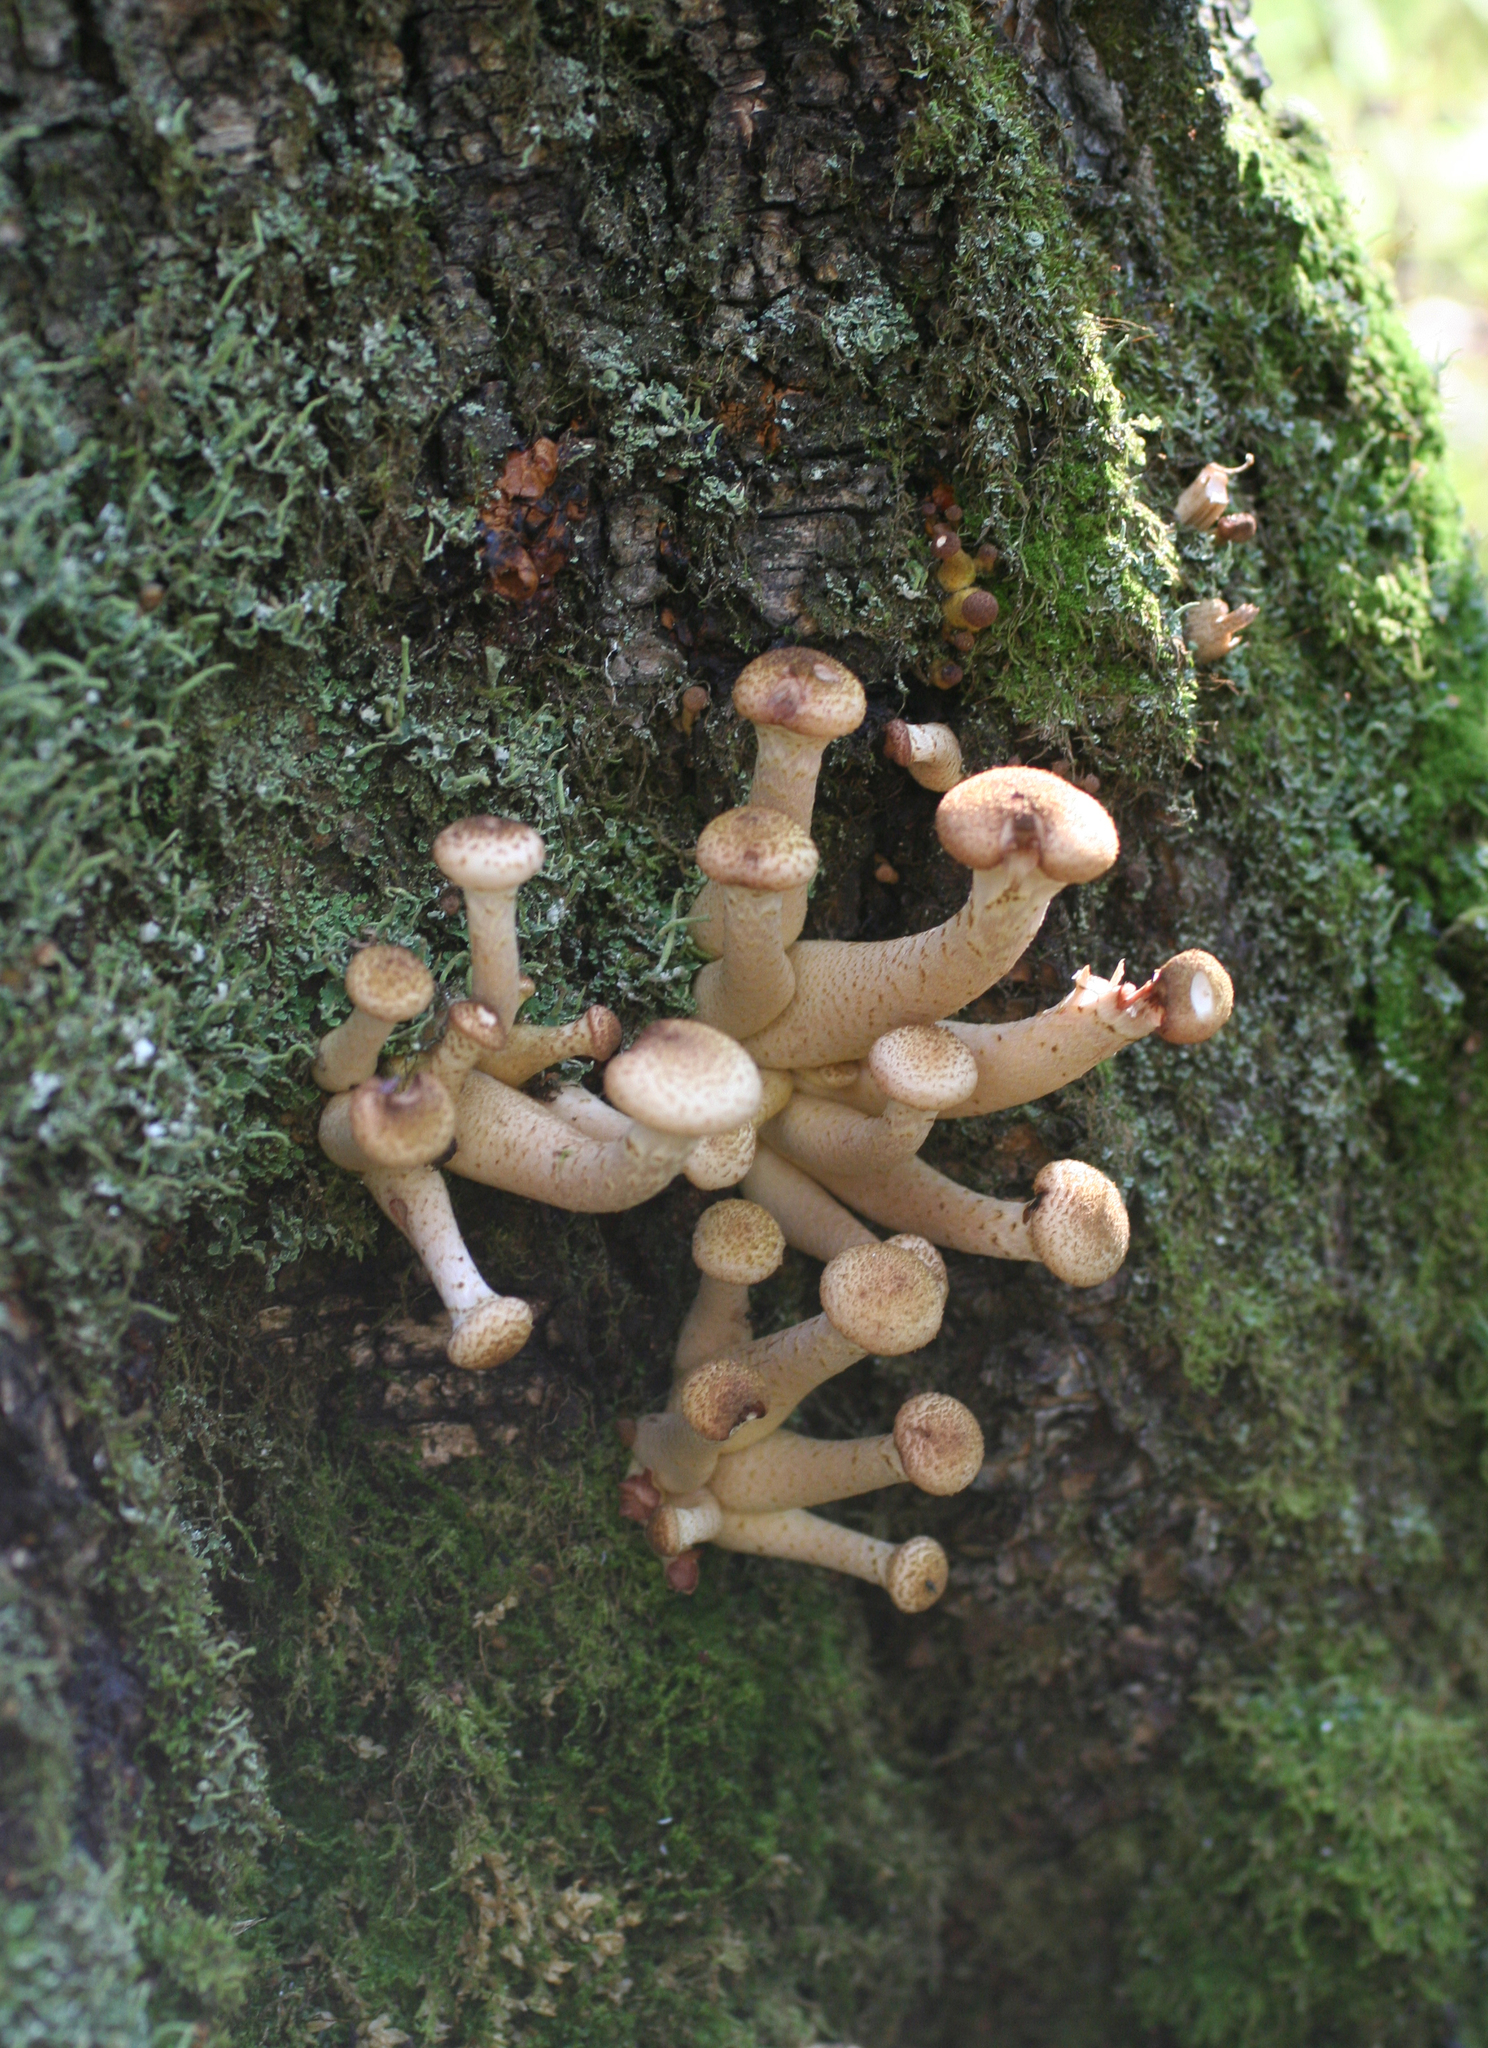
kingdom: Fungi
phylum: Basidiomycota
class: Agaricomycetes
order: Agaricales
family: Physalacriaceae
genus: Armillaria
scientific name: Armillaria borealis
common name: Northern honey fungus
